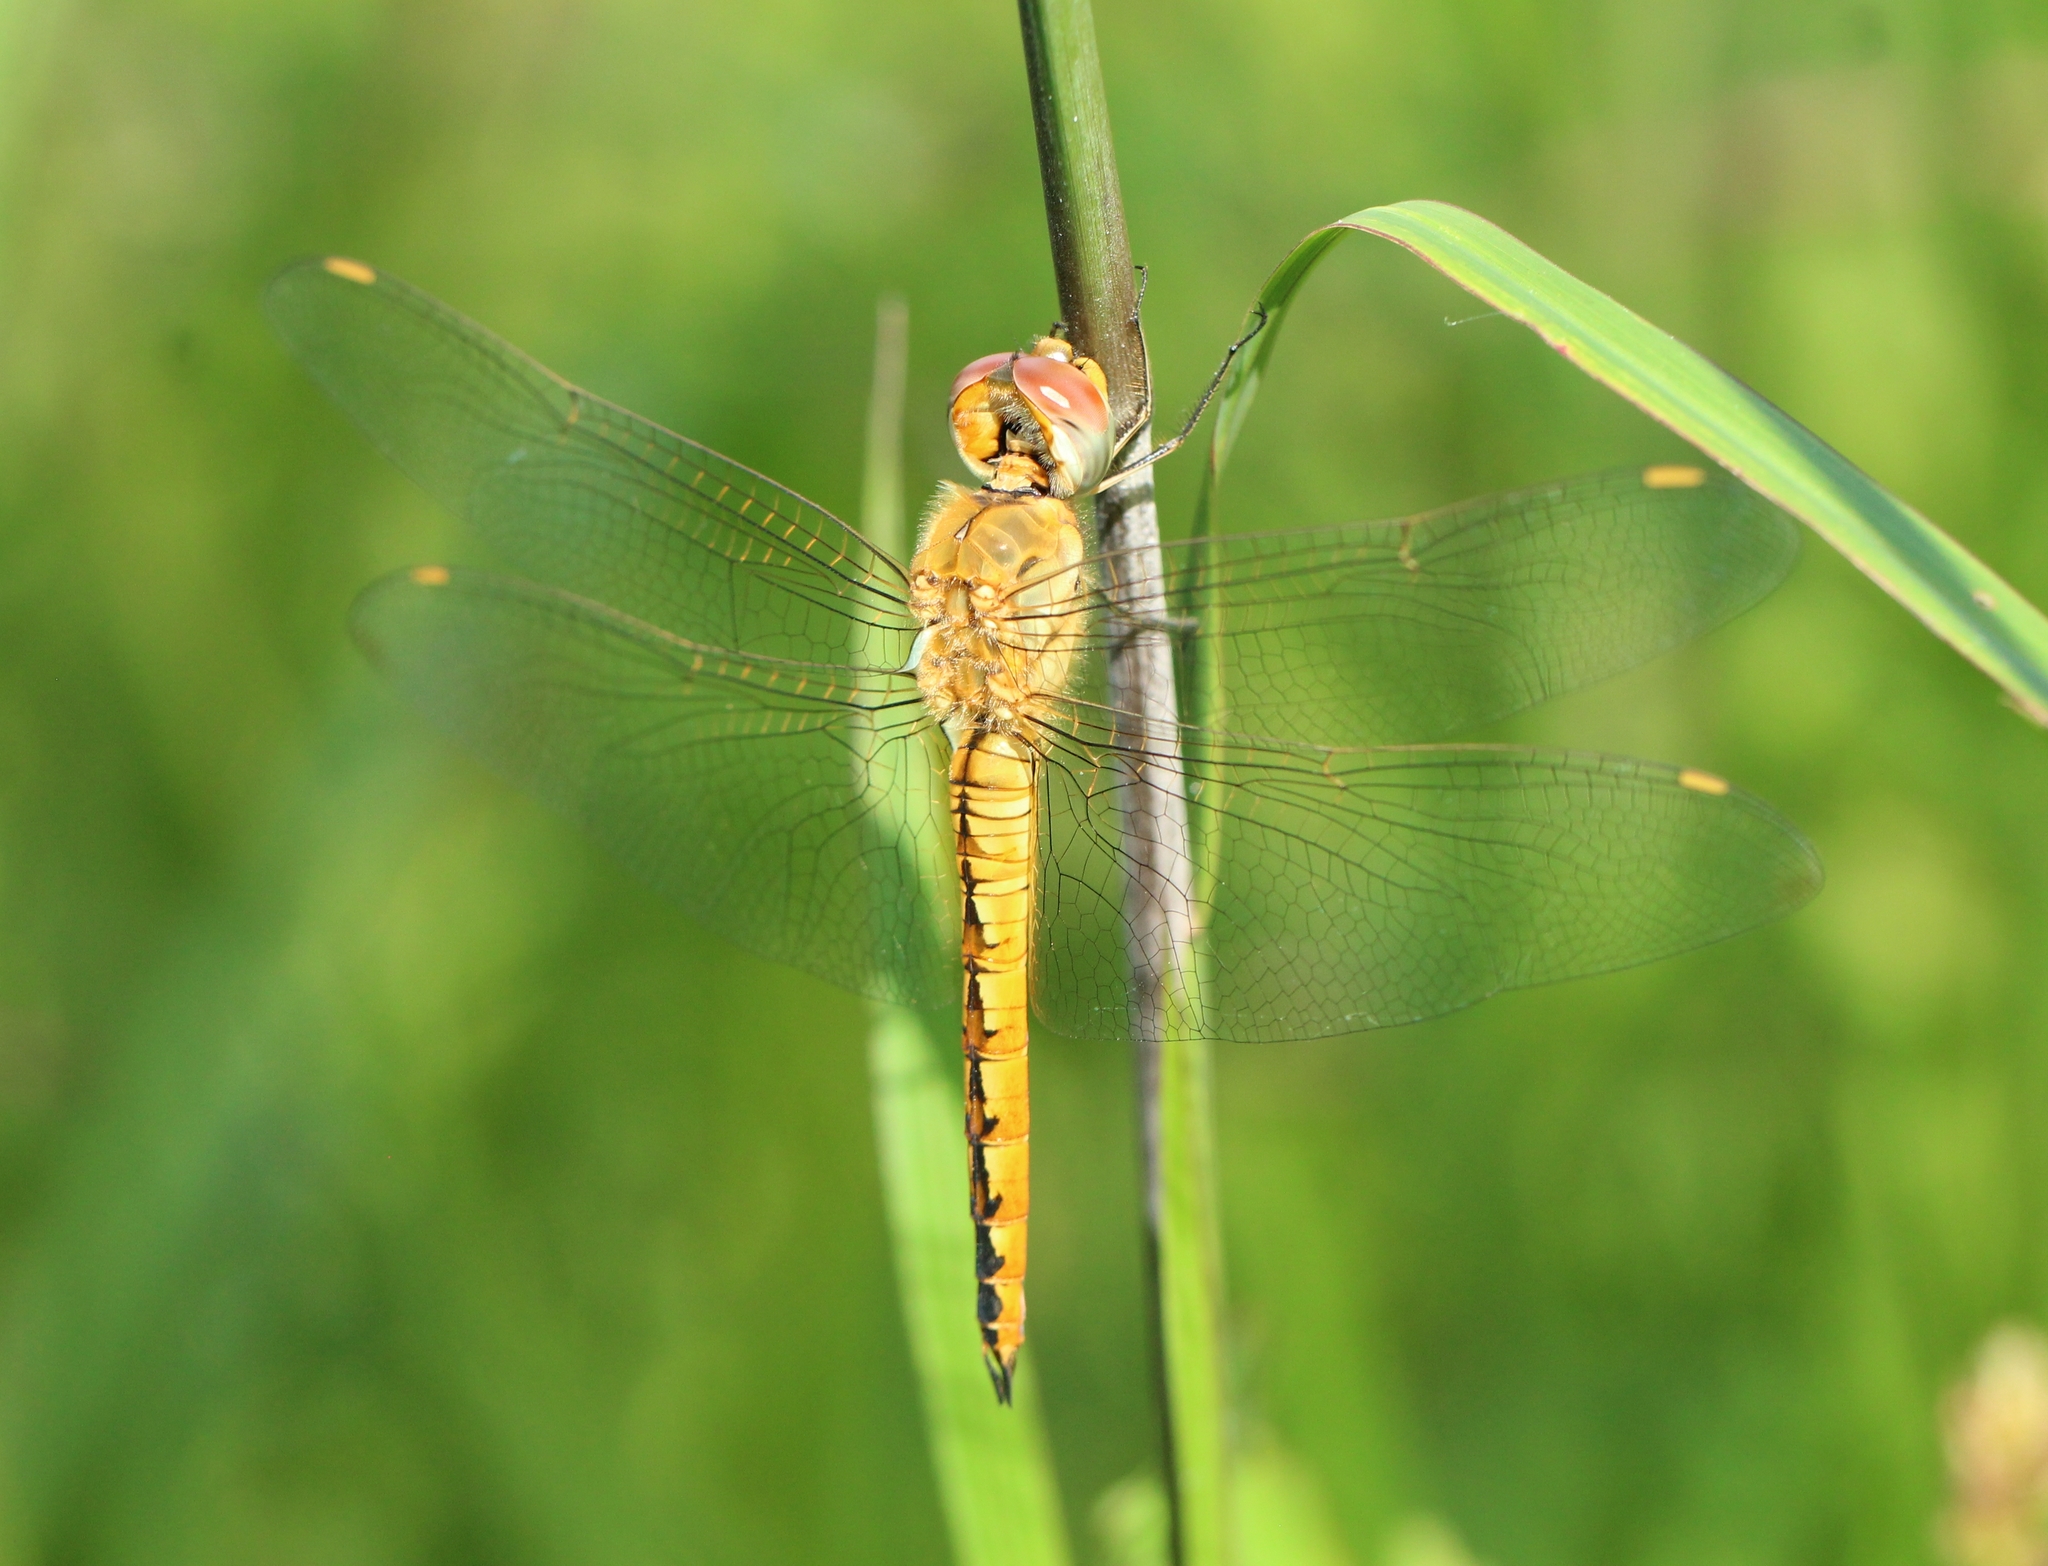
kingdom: Animalia
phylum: Arthropoda
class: Insecta
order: Odonata
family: Libellulidae
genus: Pantala
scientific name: Pantala flavescens
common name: Wandering glider
